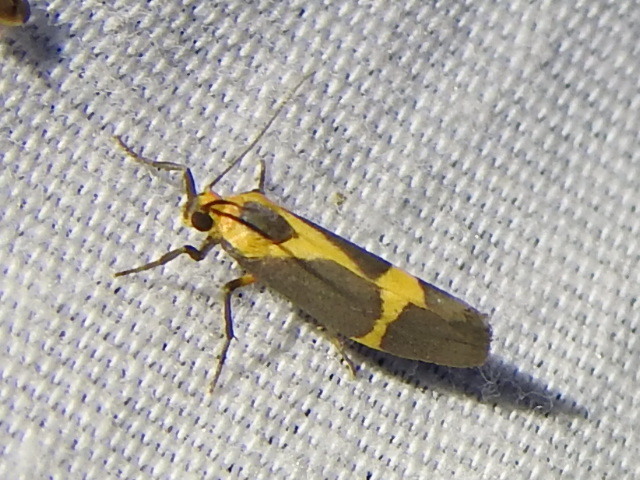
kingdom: Animalia
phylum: Arthropoda
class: Insecta
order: Lepidoptera
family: Erebidae
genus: Cisthene
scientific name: Cisthene tenuifascia
